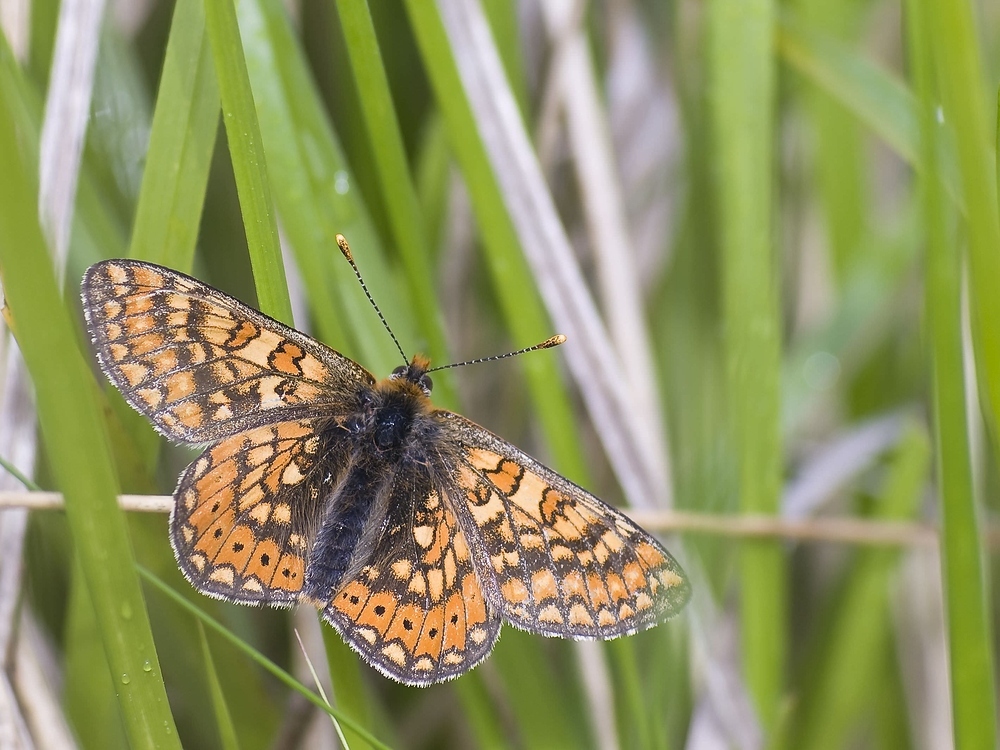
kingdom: Animalia
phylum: Arthropoda
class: Insecta
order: Lepidoptera
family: Nymphalidae
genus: Euphydryas
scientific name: Euphydryas aurinia
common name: Marsh fritillary
